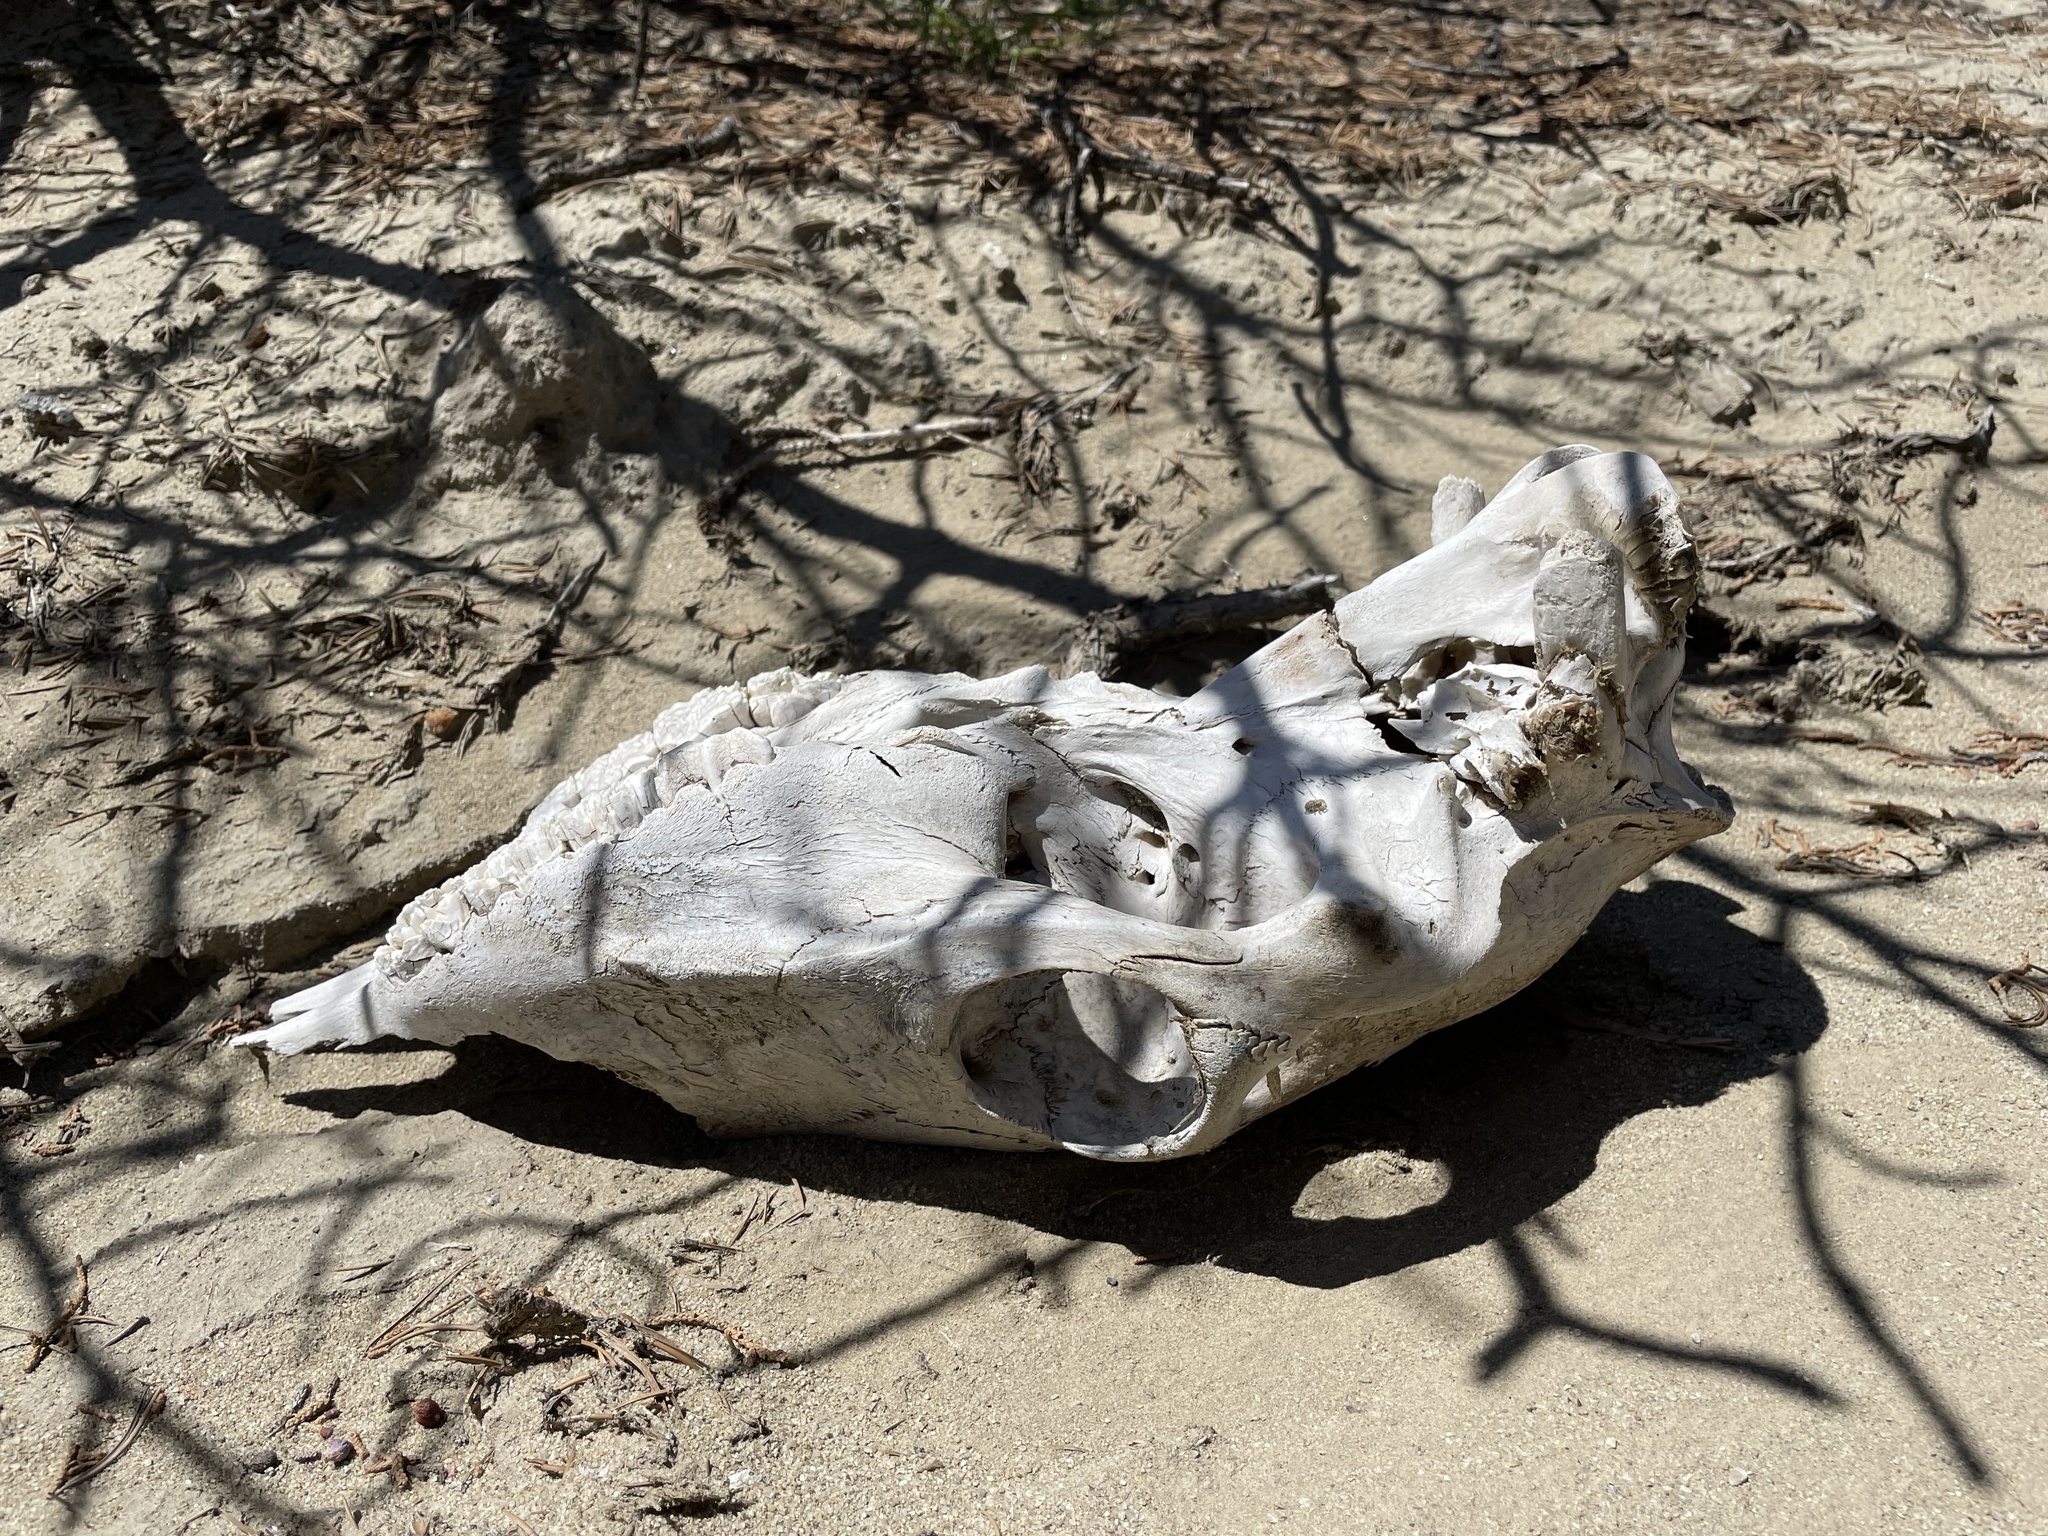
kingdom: Animalia
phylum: Chordata
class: Mammalia
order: Perissodactyla
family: Equidae
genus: Equus
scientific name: Equus caballus
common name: Horse
